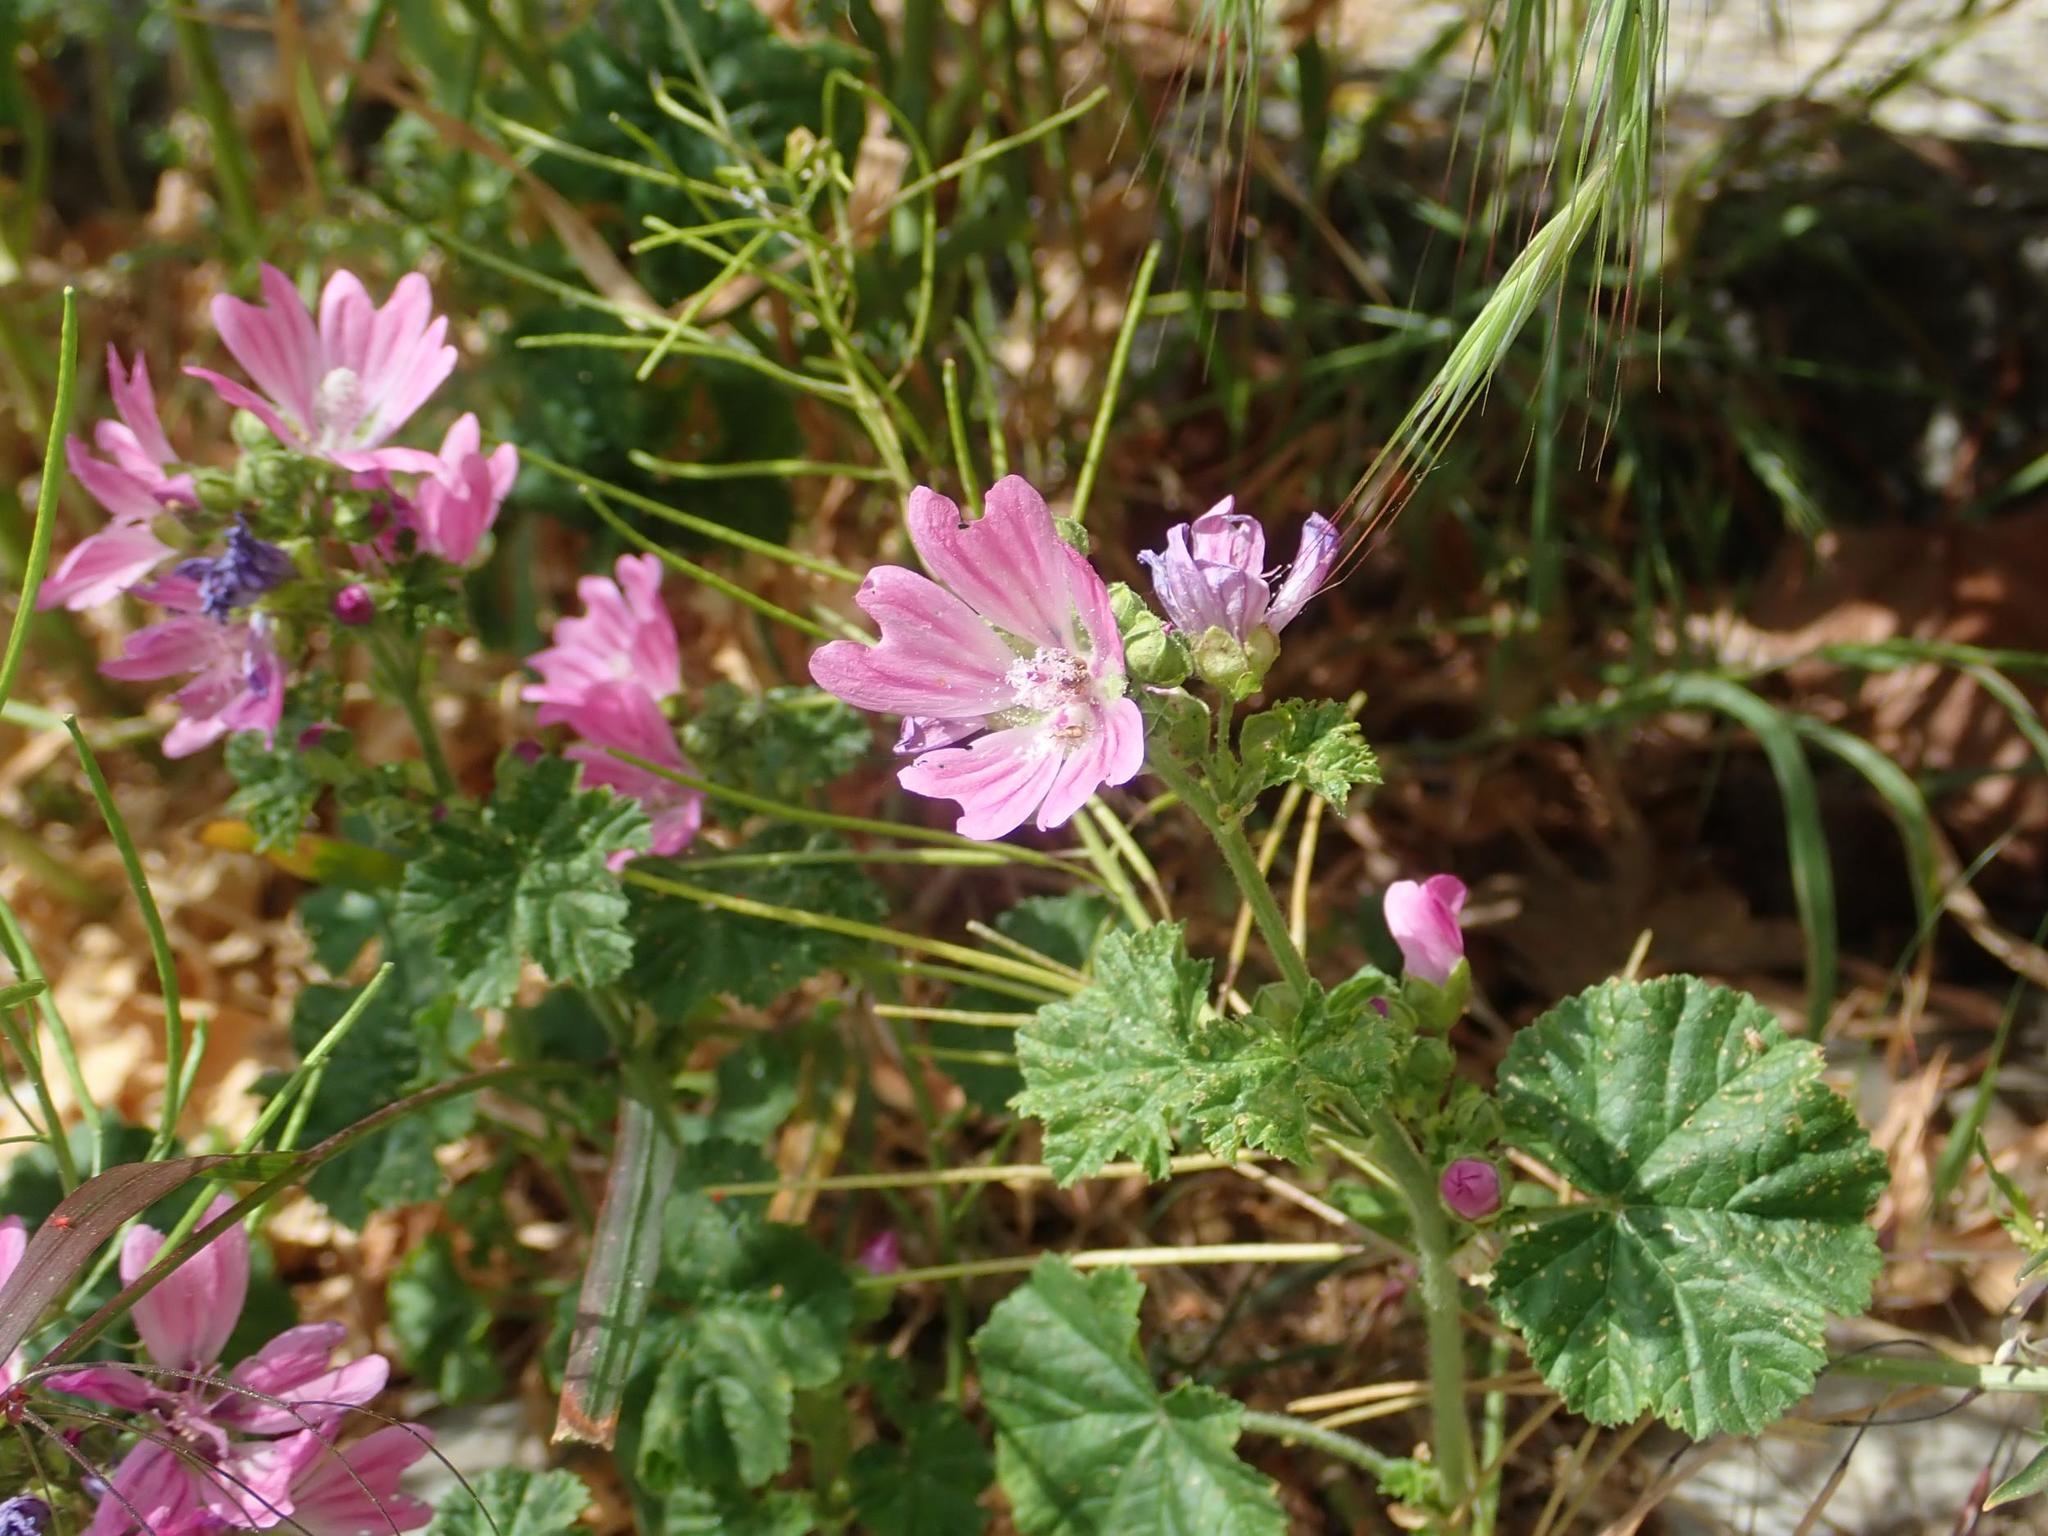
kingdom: Plantae
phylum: Tracheophyta
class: Magnoliopsida
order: Malvales
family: Malvaceae
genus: Malva
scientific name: Malva sylvestris
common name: Common mallow
